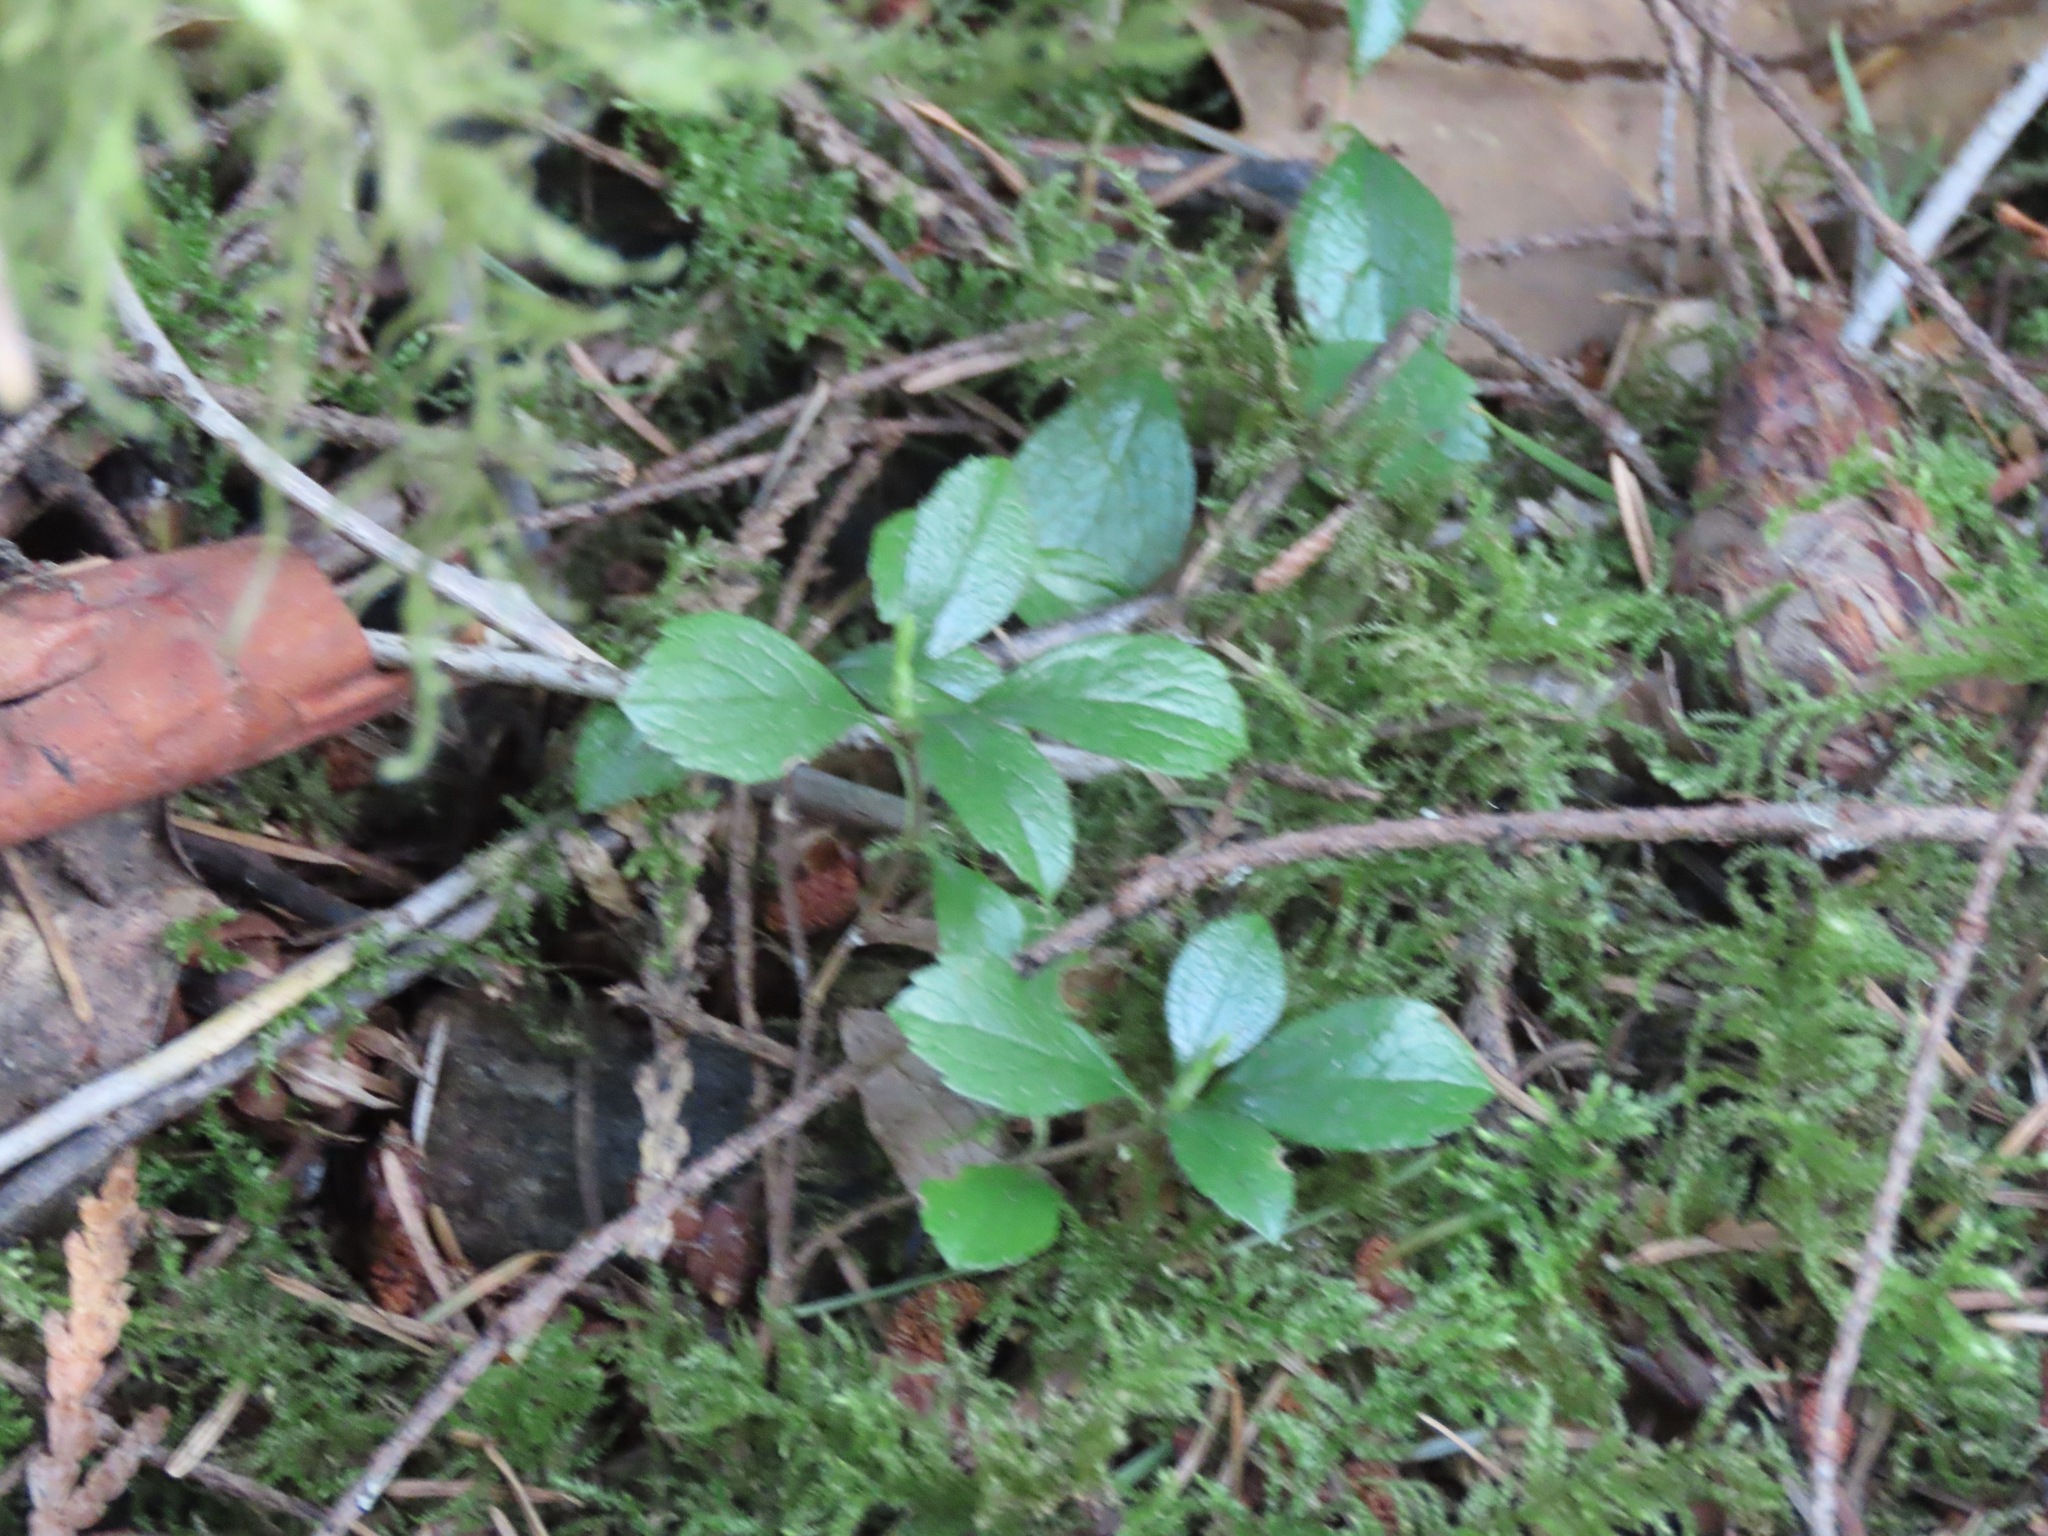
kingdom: Plantae
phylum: Tracheophyta
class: Magnoliopsida
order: Dipsacales
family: Caprifoliaceae
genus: Linnaea
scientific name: Linnaea borealis
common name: Twinflower
